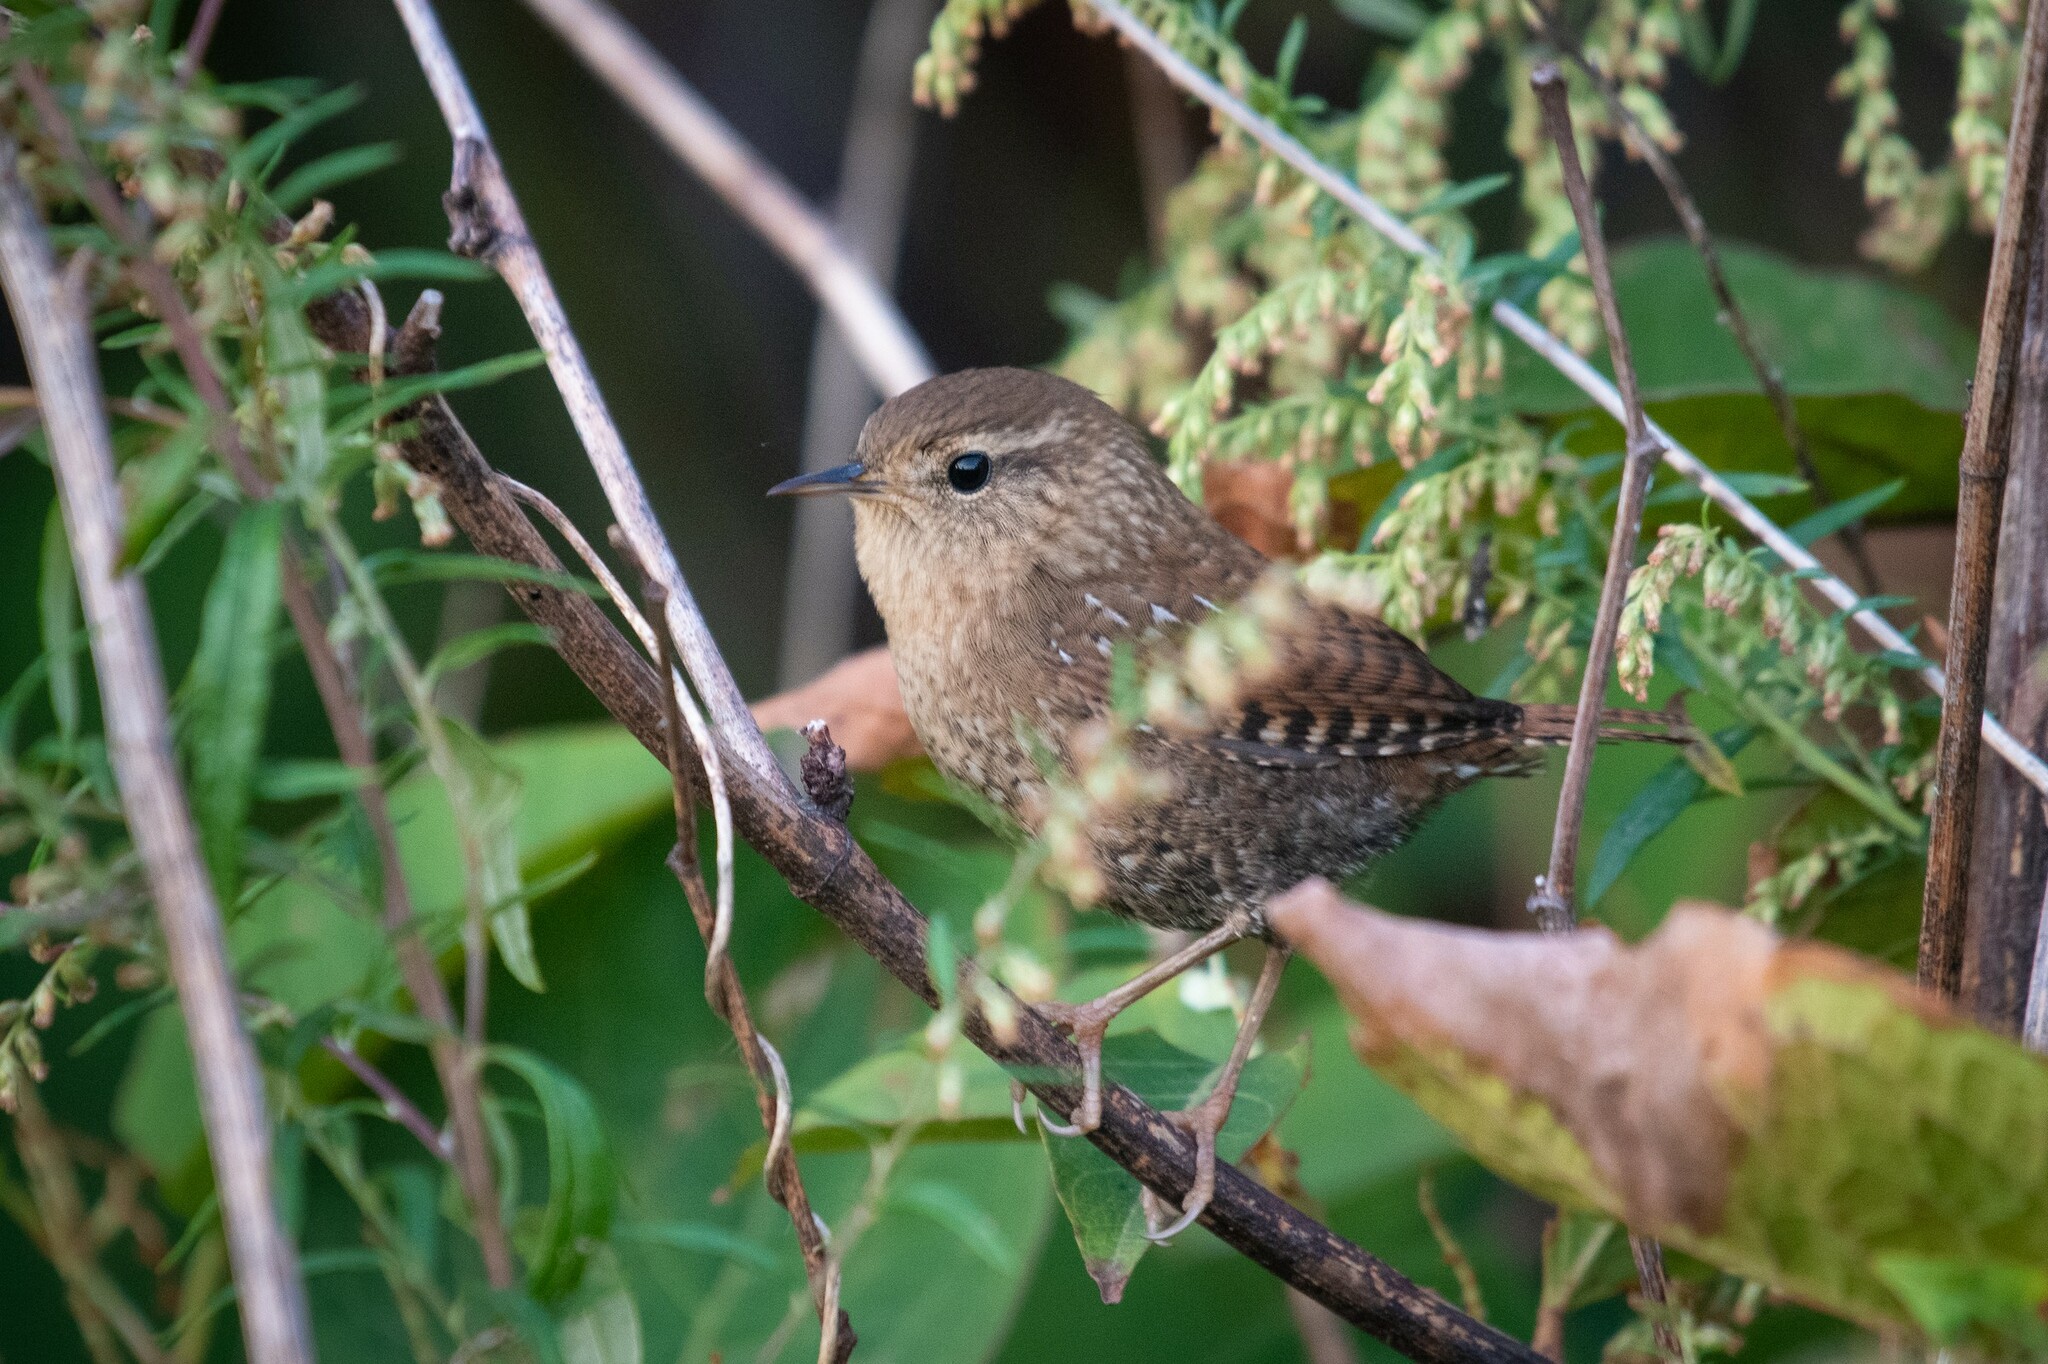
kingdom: Animalia
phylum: Chordata
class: Aves
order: Passeriformes
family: Troglodytidae
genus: Troglodytes
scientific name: Troglodytes hiemalis
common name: Winter wren
